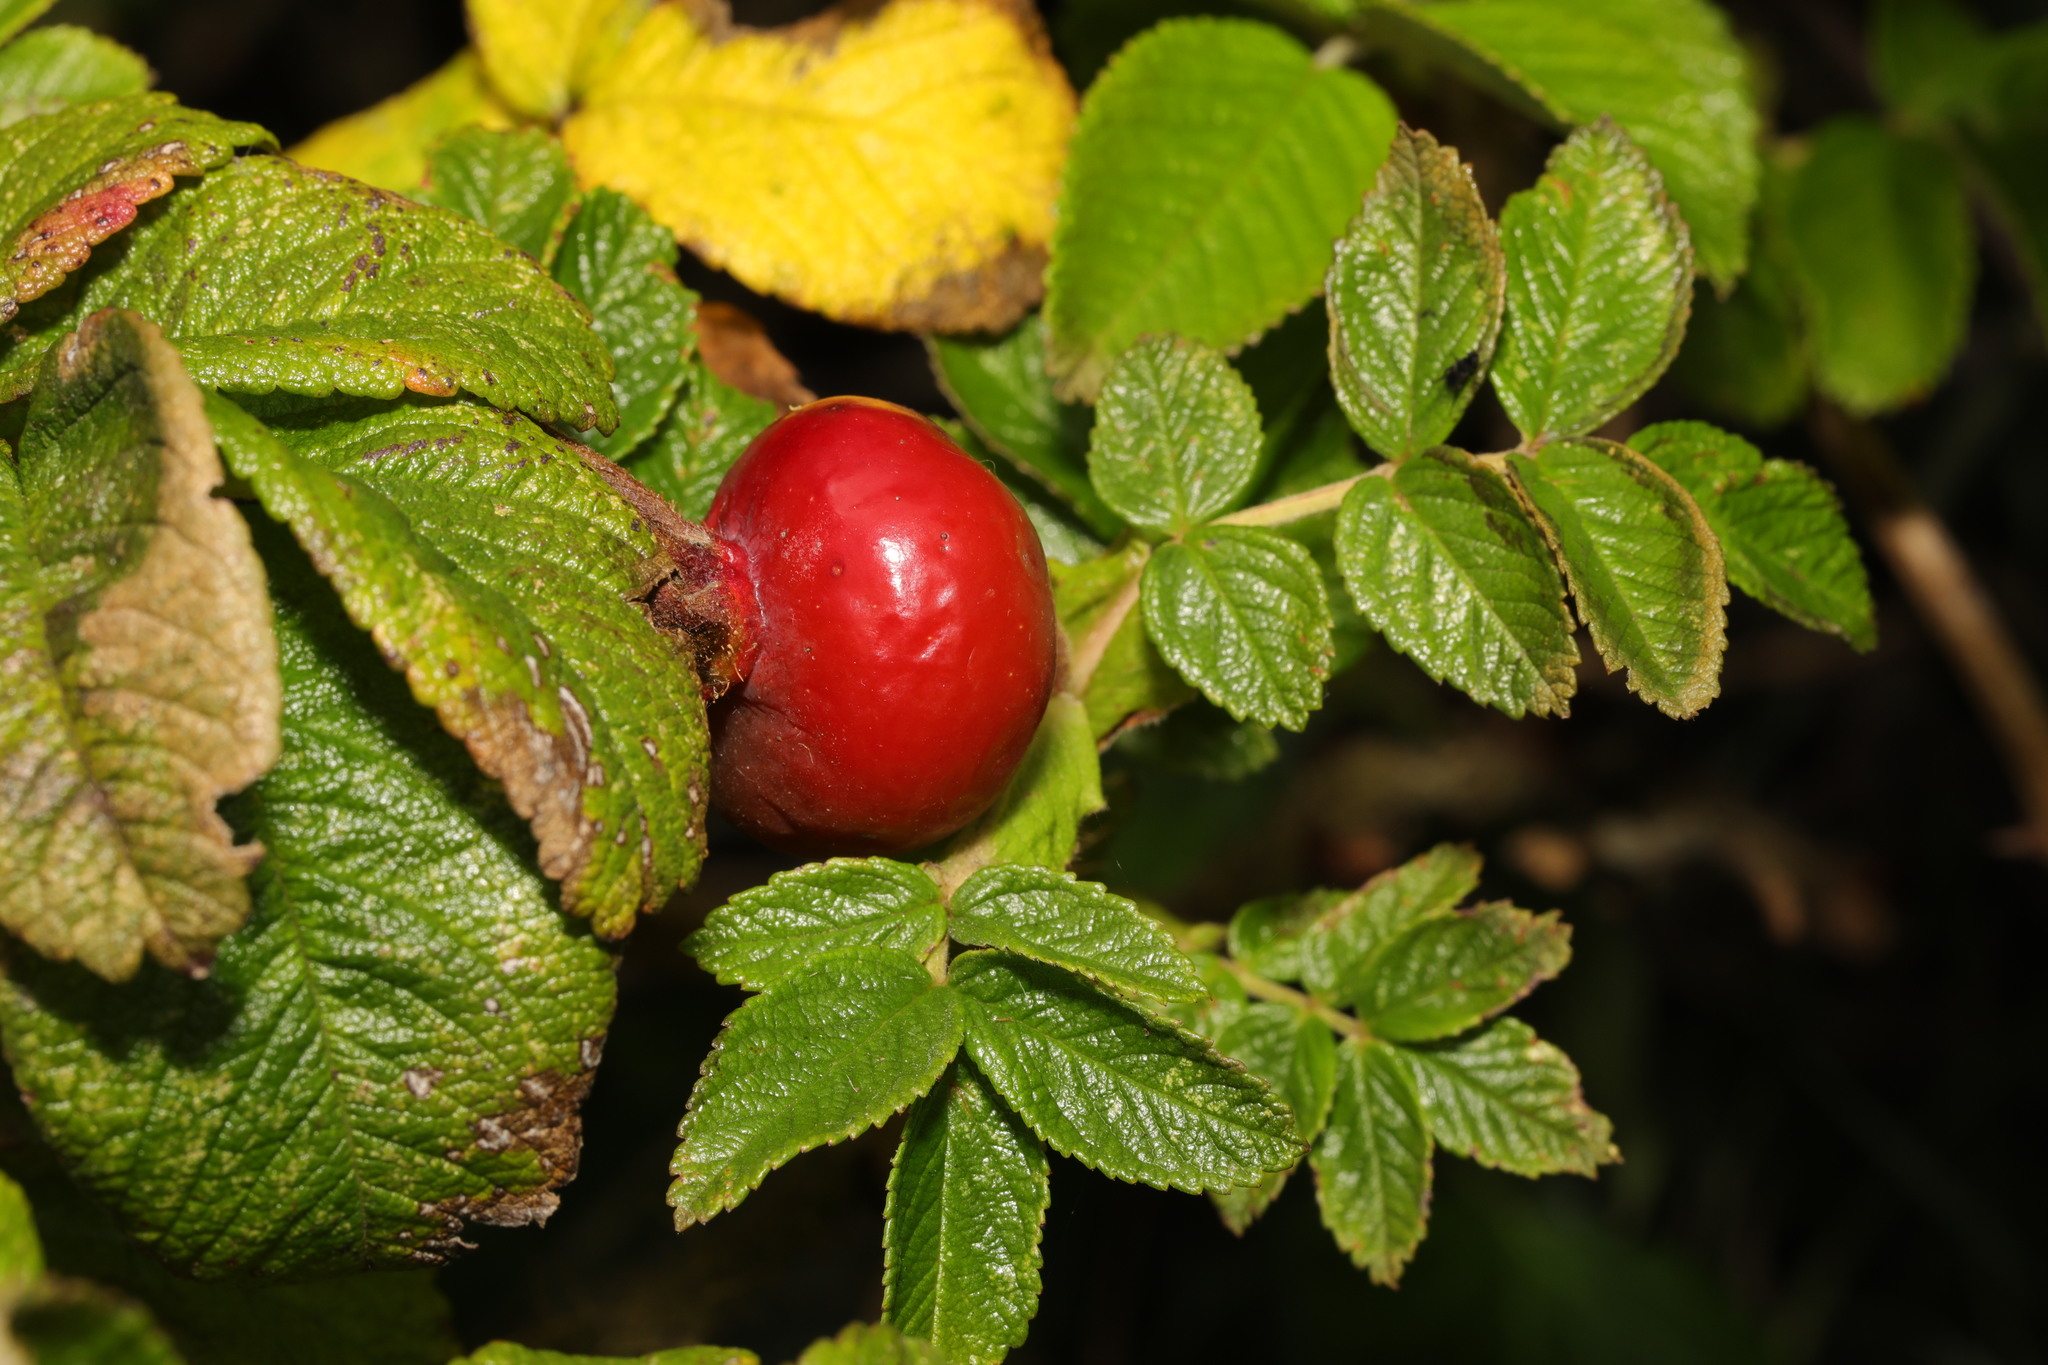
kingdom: Plantae
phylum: Tracheophyta
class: Magnoliopsida
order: Rosales
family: Rosaceae
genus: Rosa
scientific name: Rosa rugosa
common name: Japanese rose
